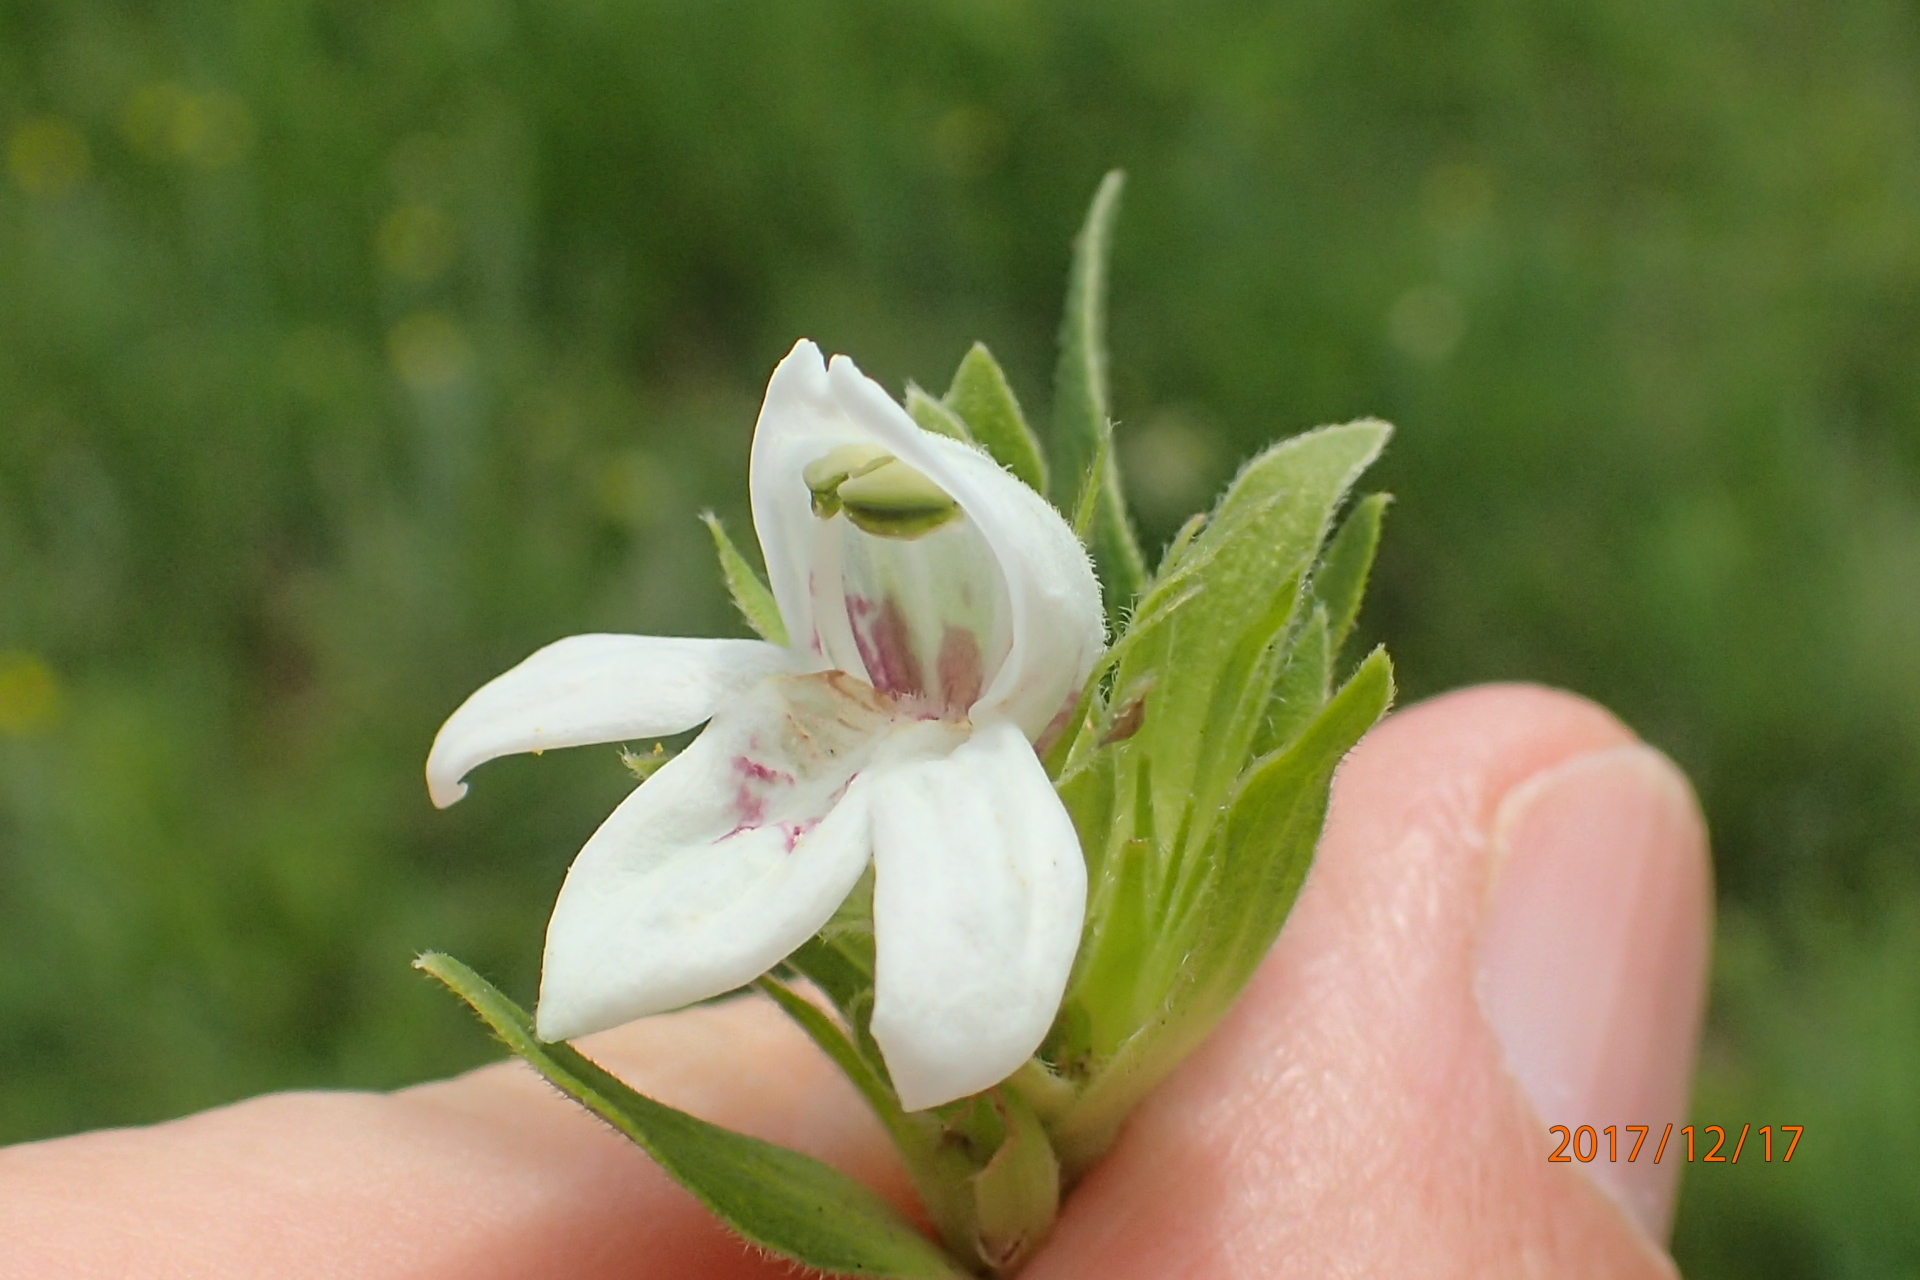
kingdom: Plantae
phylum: Tracheophyta
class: Magnoliopsida
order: Lamiales
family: Acanthaceae
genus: Justicia
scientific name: Justicia andromeda
